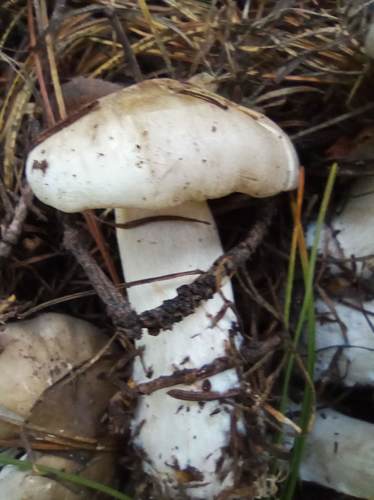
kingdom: Fungi
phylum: Basidiomycota
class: Agaricomycetes
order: Agaricales
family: Lyophyllaceae
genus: Lyophyllum
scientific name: Lyophyllum
